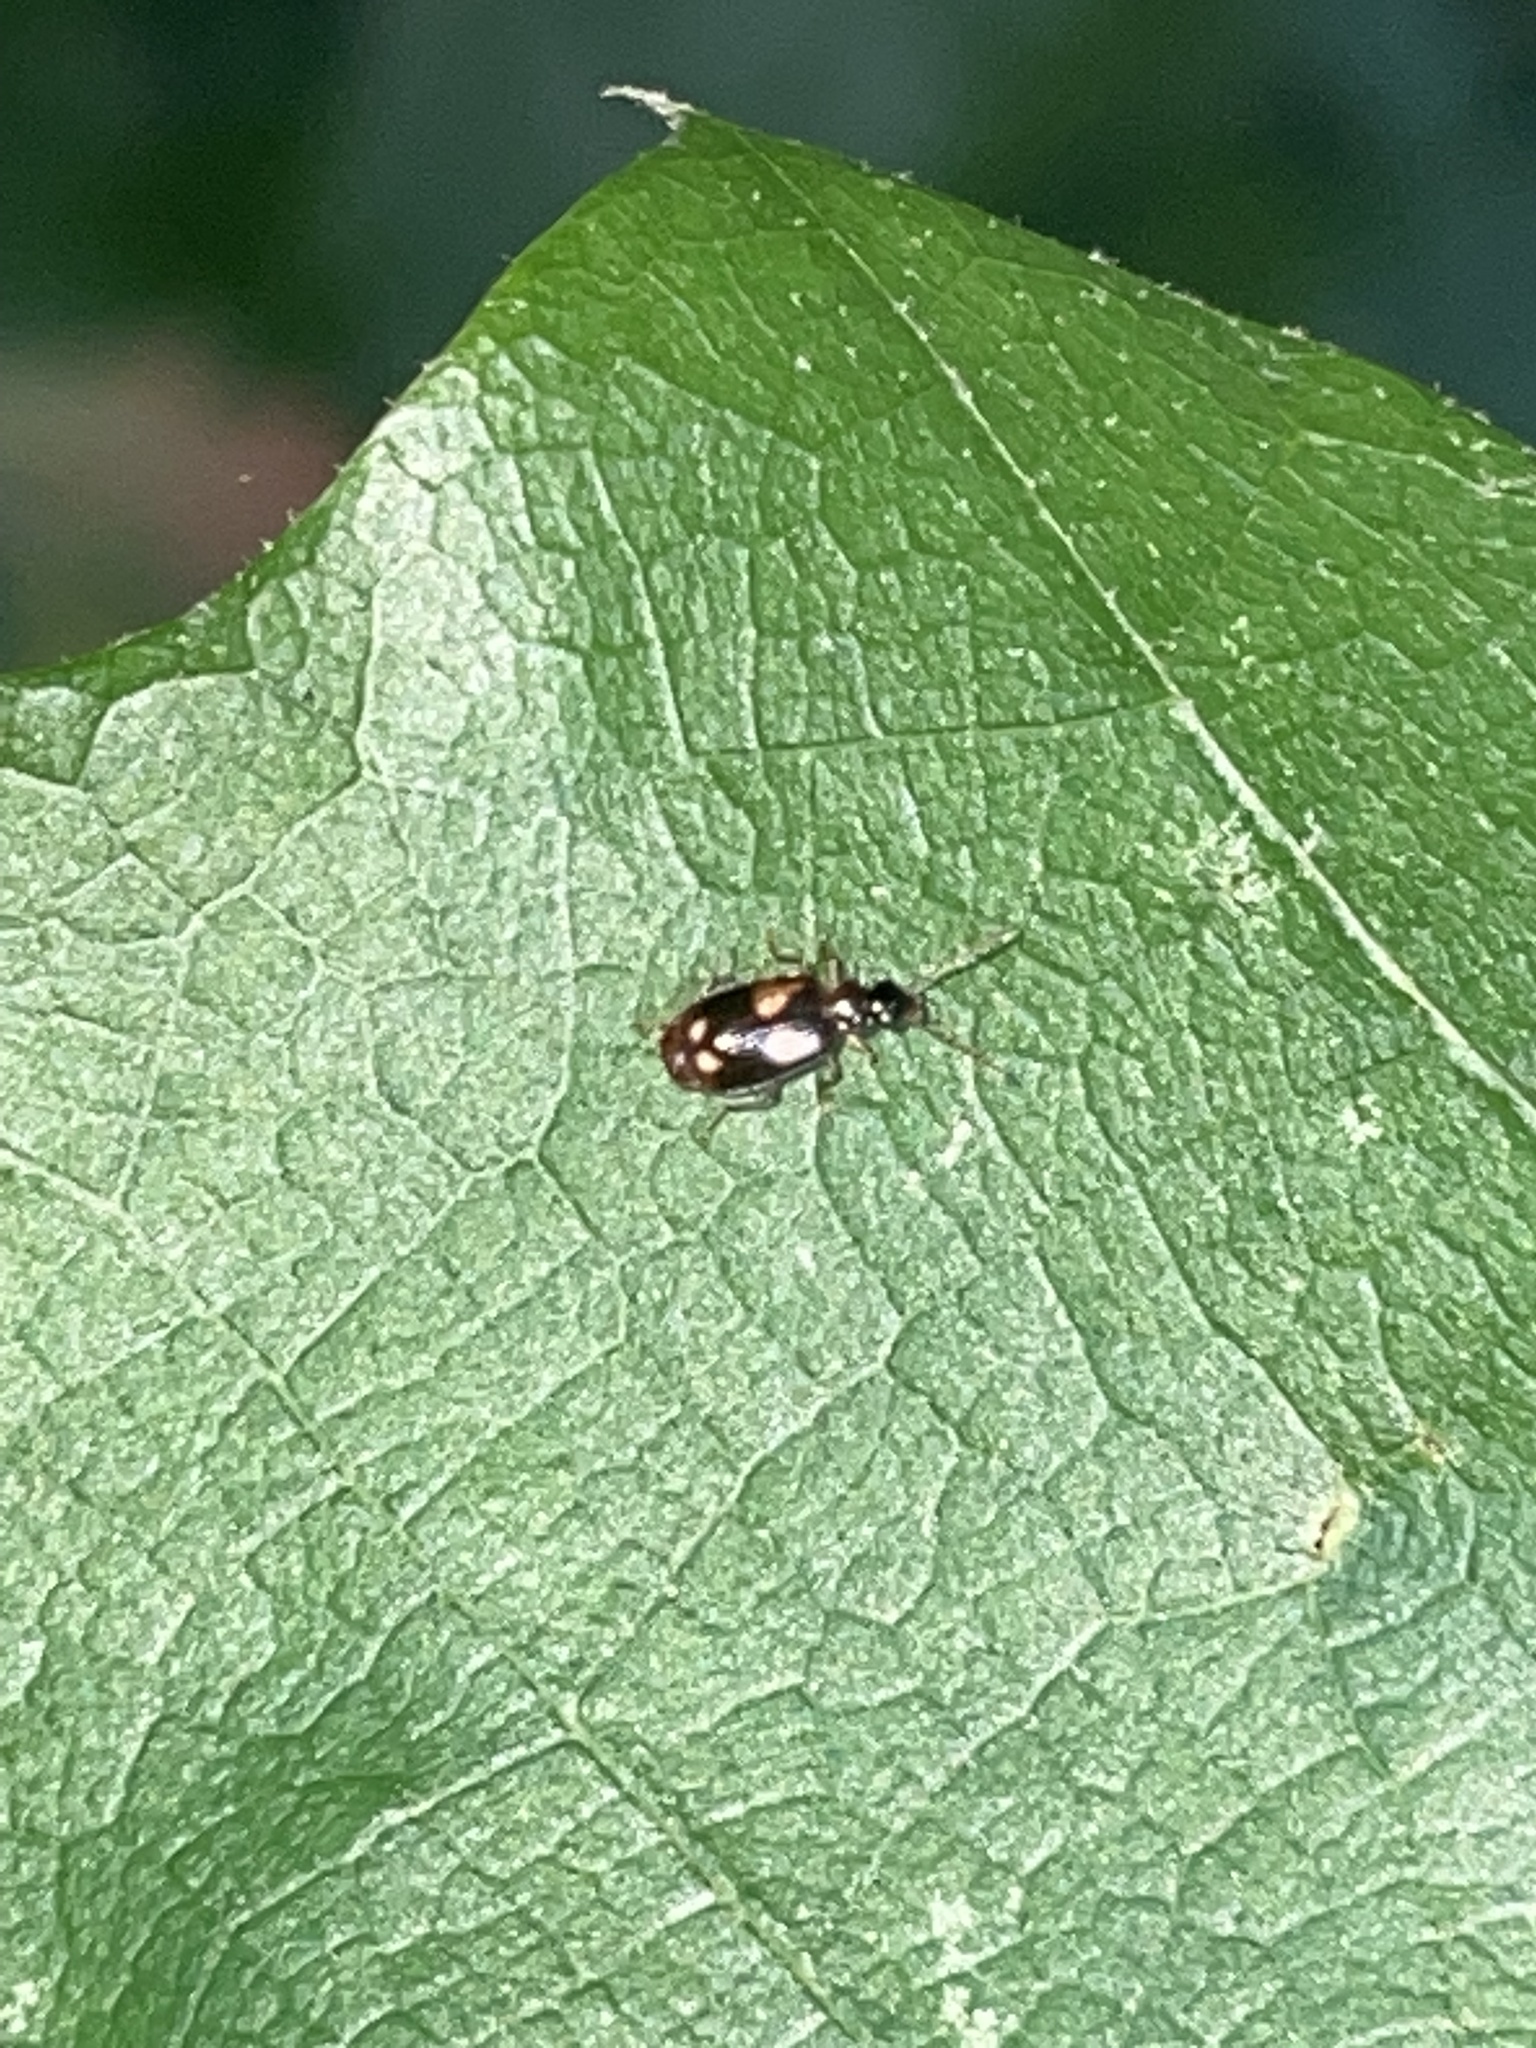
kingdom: Animalia
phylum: Arthropoda
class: Insecta
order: Coleoptera
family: Carabidae
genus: Lebia
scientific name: Lebia ornata
